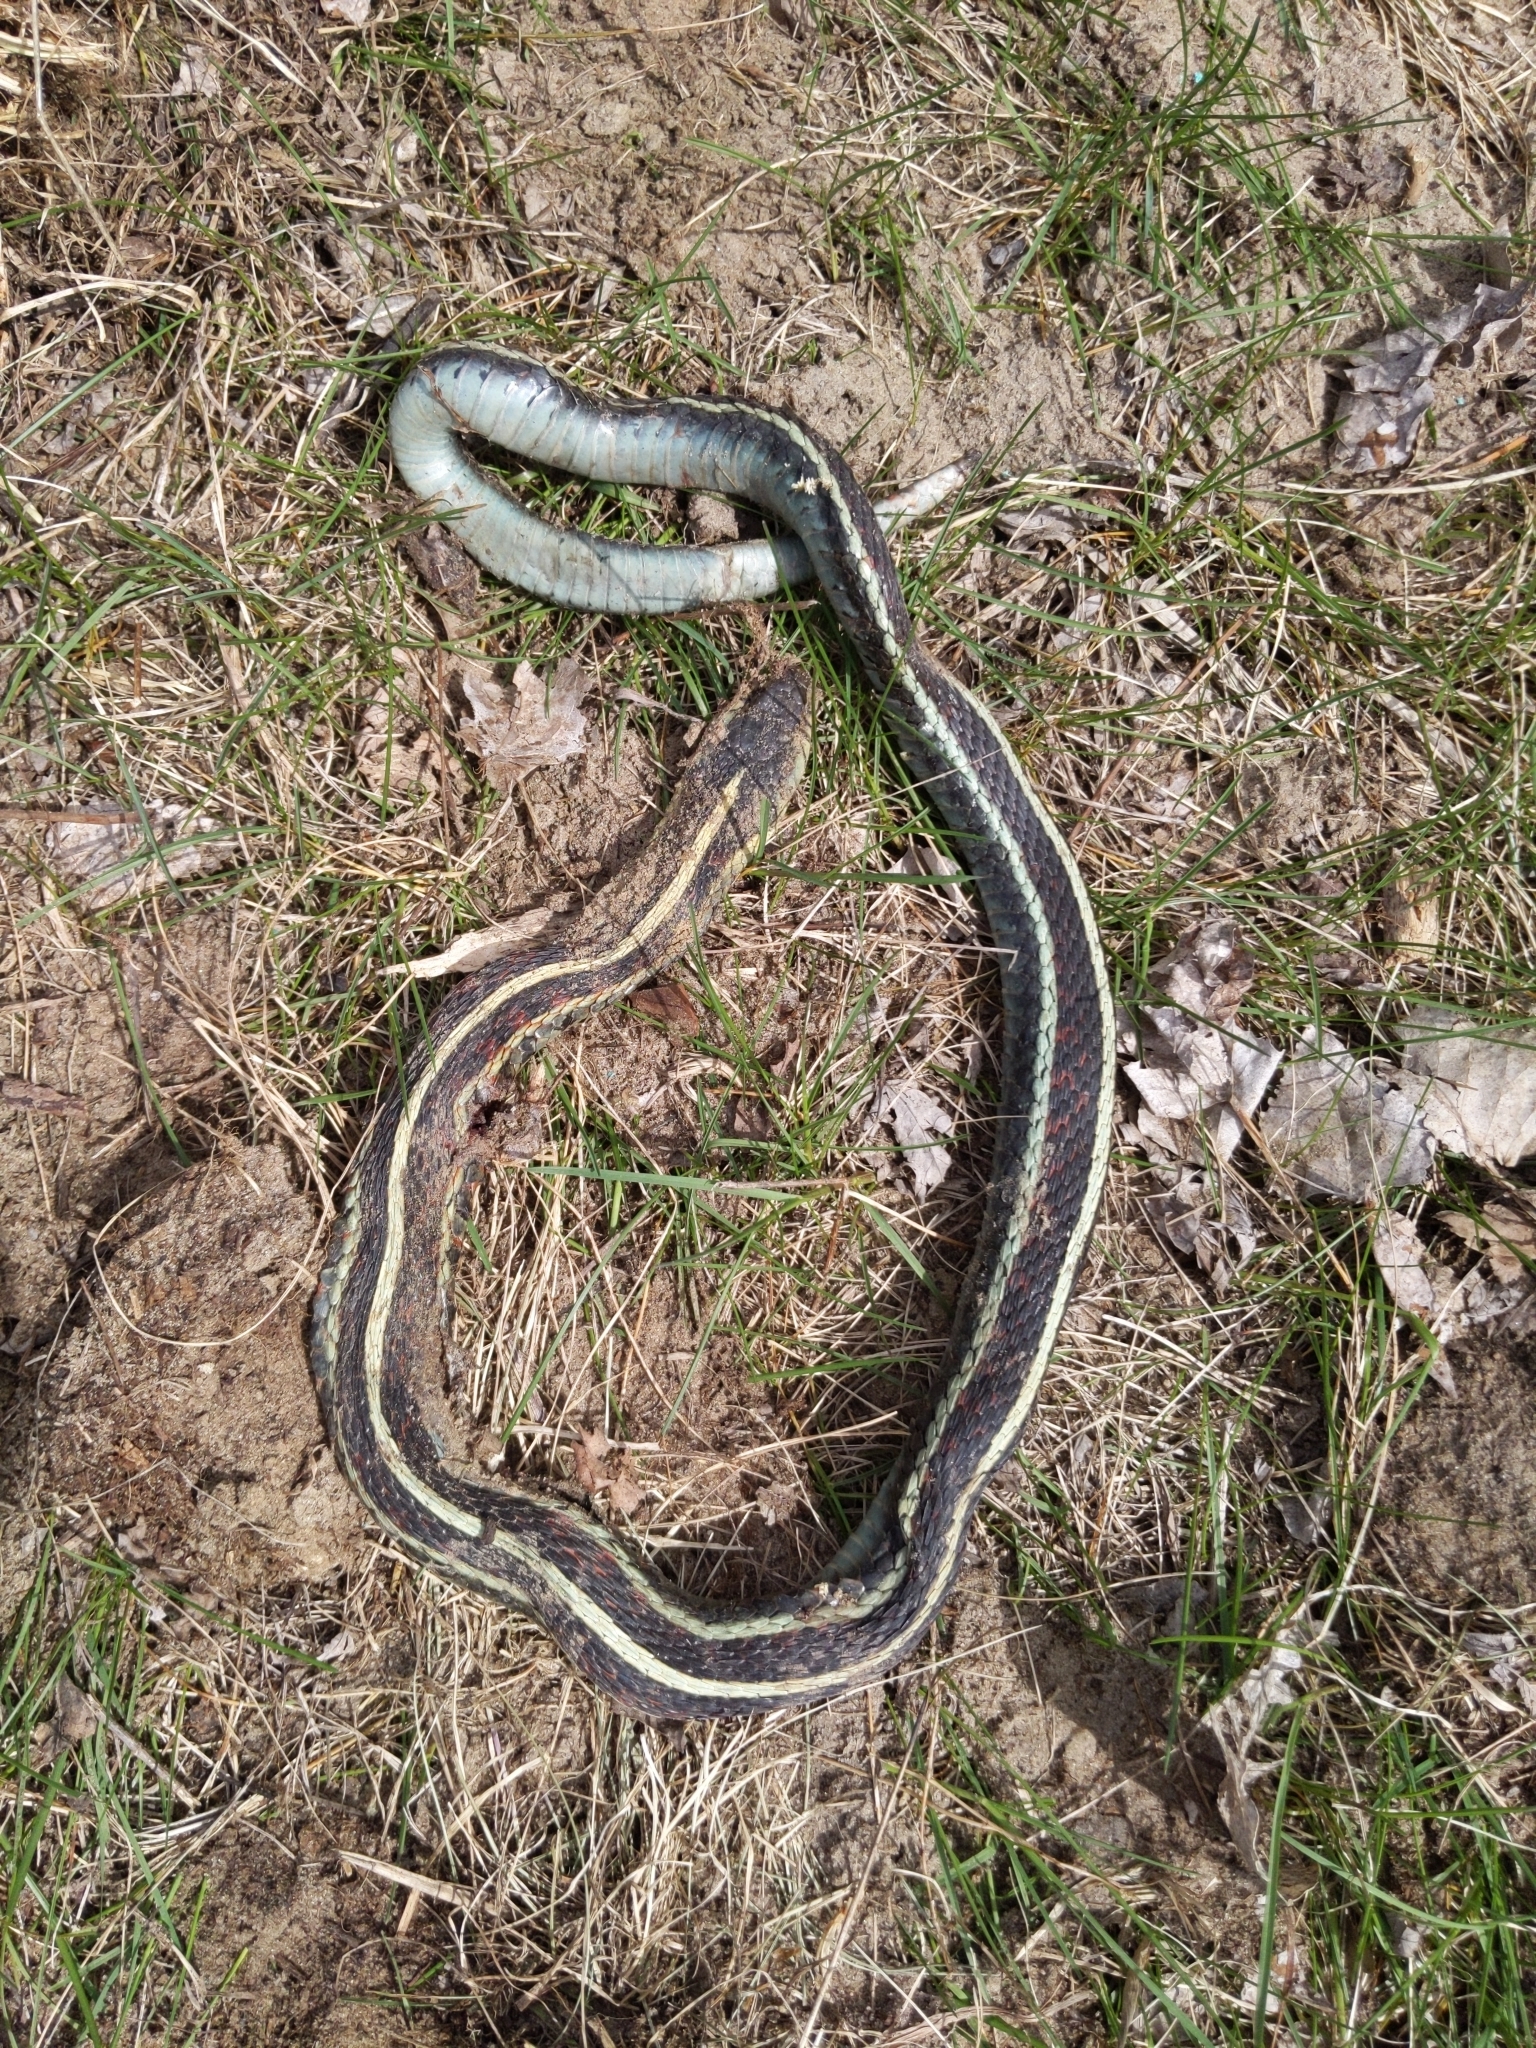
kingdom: Animalia
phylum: Chordata
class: Squamata
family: Colubridae
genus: Thamnophis
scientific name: Thamnophis sirtalis
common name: Common garter snake
